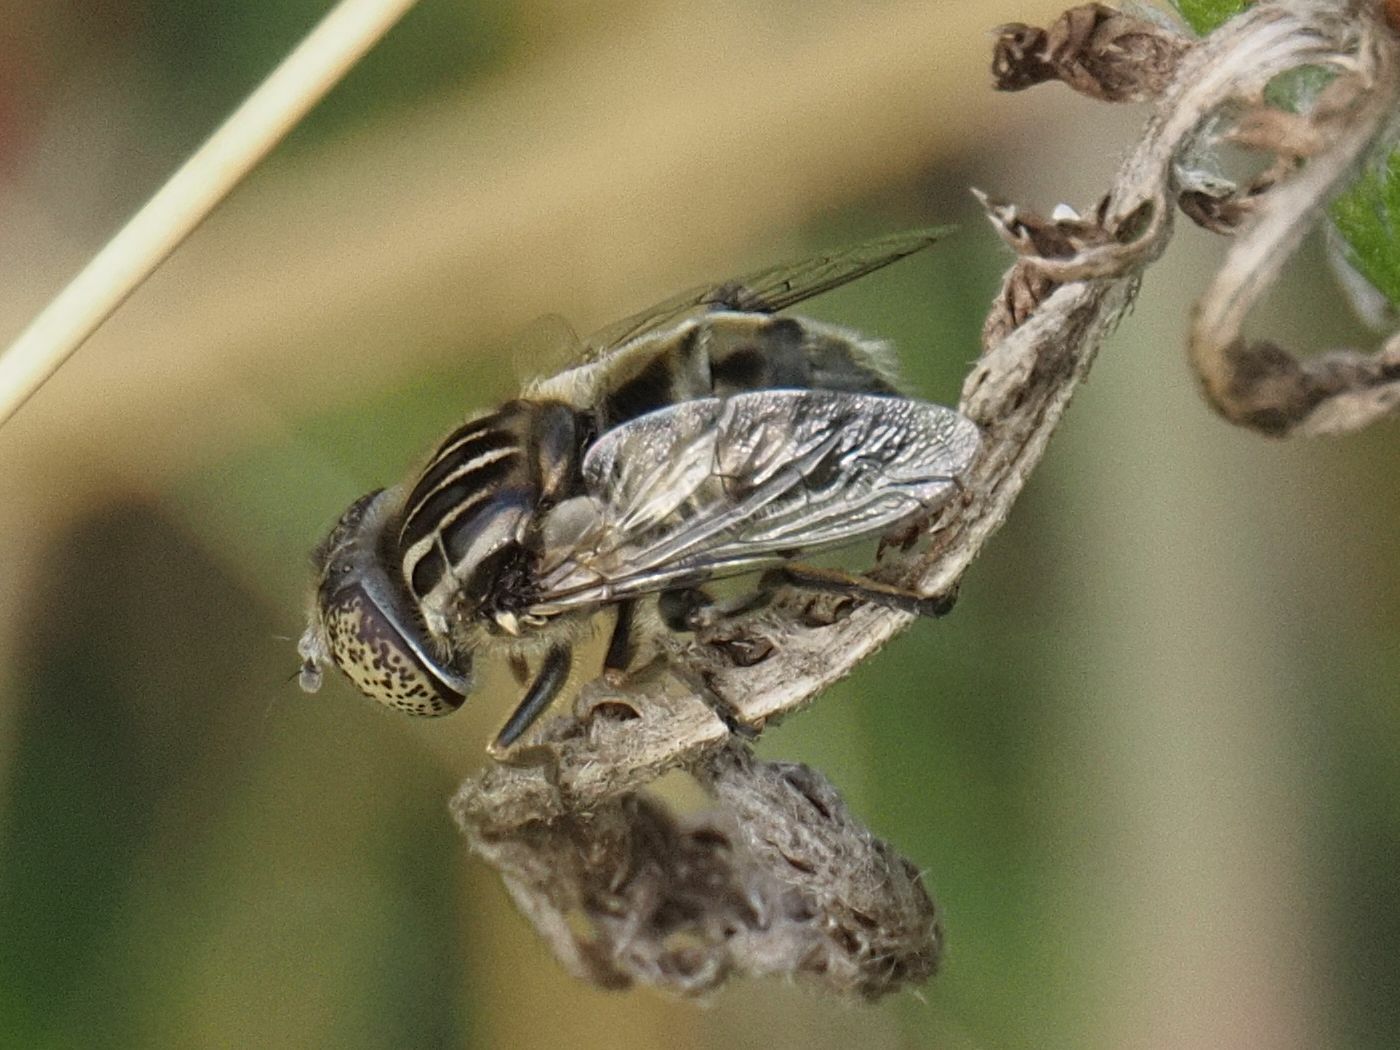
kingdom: Animalia
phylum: Arthropoda
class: Insecta
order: Diptera
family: Syrphidae
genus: Eristalinus
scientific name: Eristalinus sepulchralis
